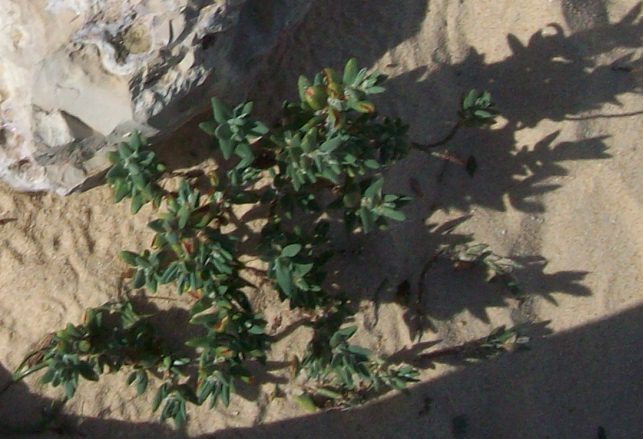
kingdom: Plantae
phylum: Tracheophyta
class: Magnoliopsida
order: Caryophyllales
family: Polygonaceae
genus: Polygonum
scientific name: Polygonum maritimum
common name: Sea knotgrass
